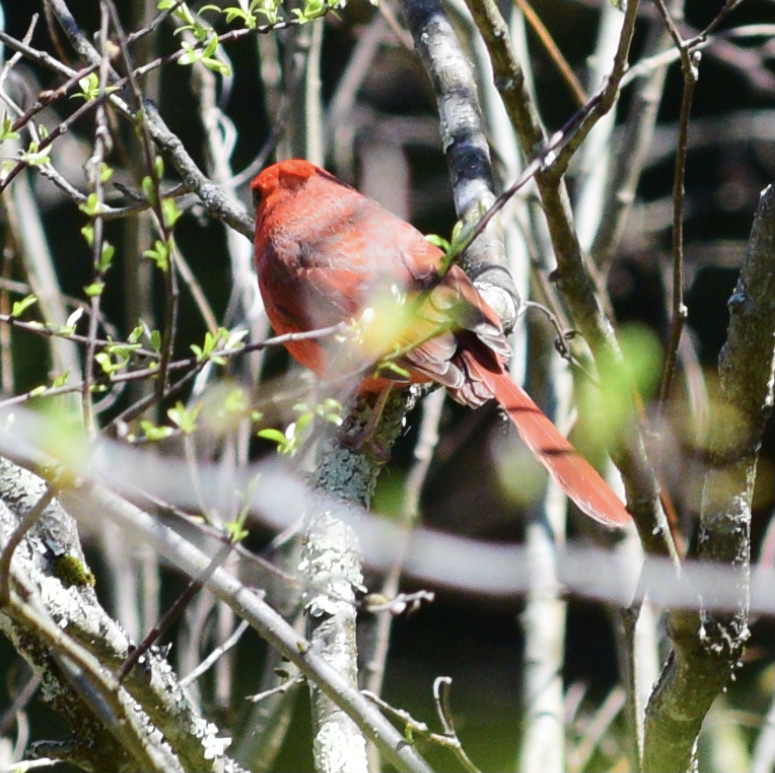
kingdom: Animalia
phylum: Chordata
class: Aves
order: Passeriformes
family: Cardinalidae
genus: Cardinalis
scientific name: Cardinalis cardinalis
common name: Northern cardinal
